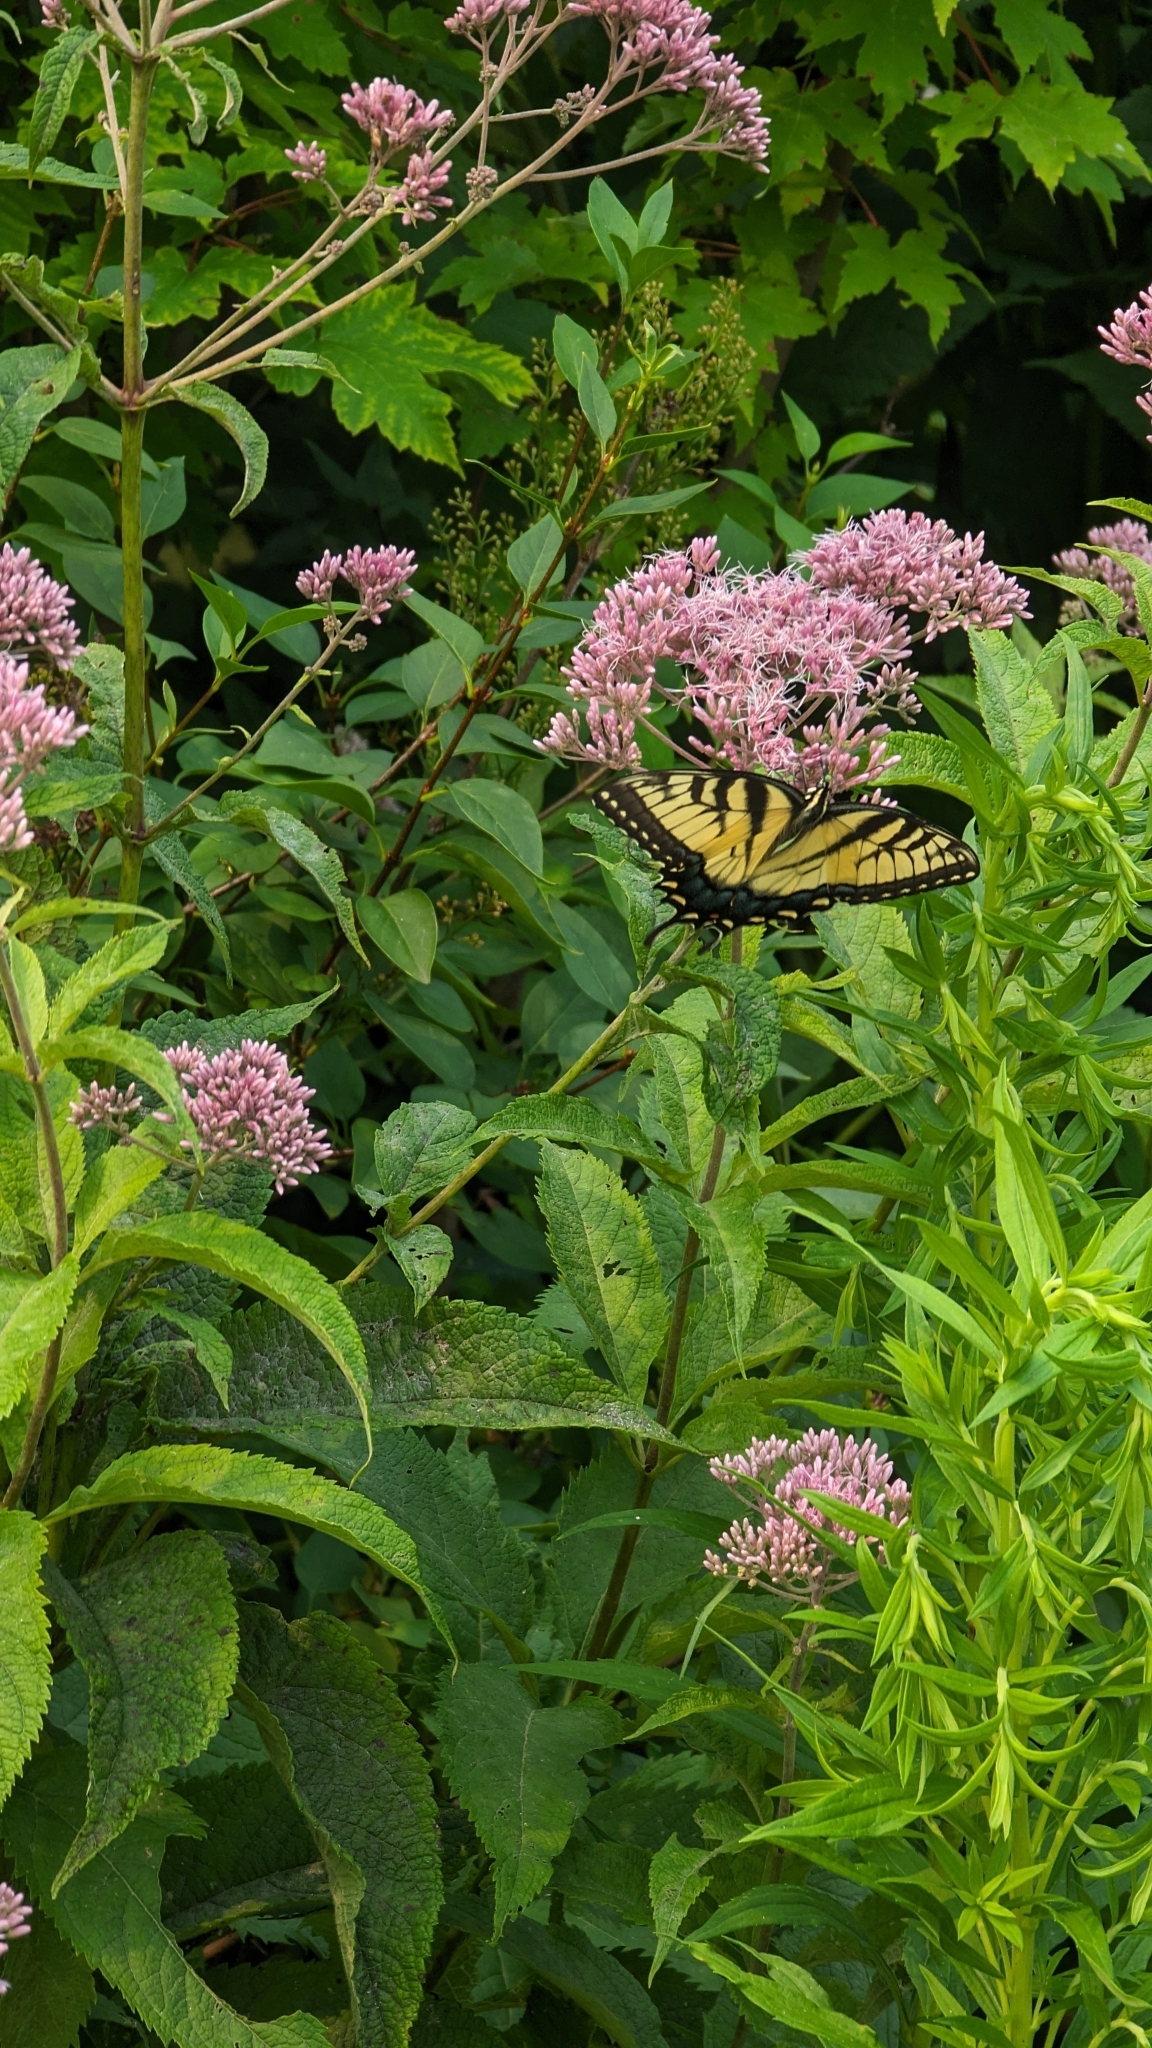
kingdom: Animalia
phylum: Arthropoda
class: Insecta
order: Lepidoptera
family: Papilionidae
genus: Papilio
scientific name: Papilio glaucus
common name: Tiger swallowtail
